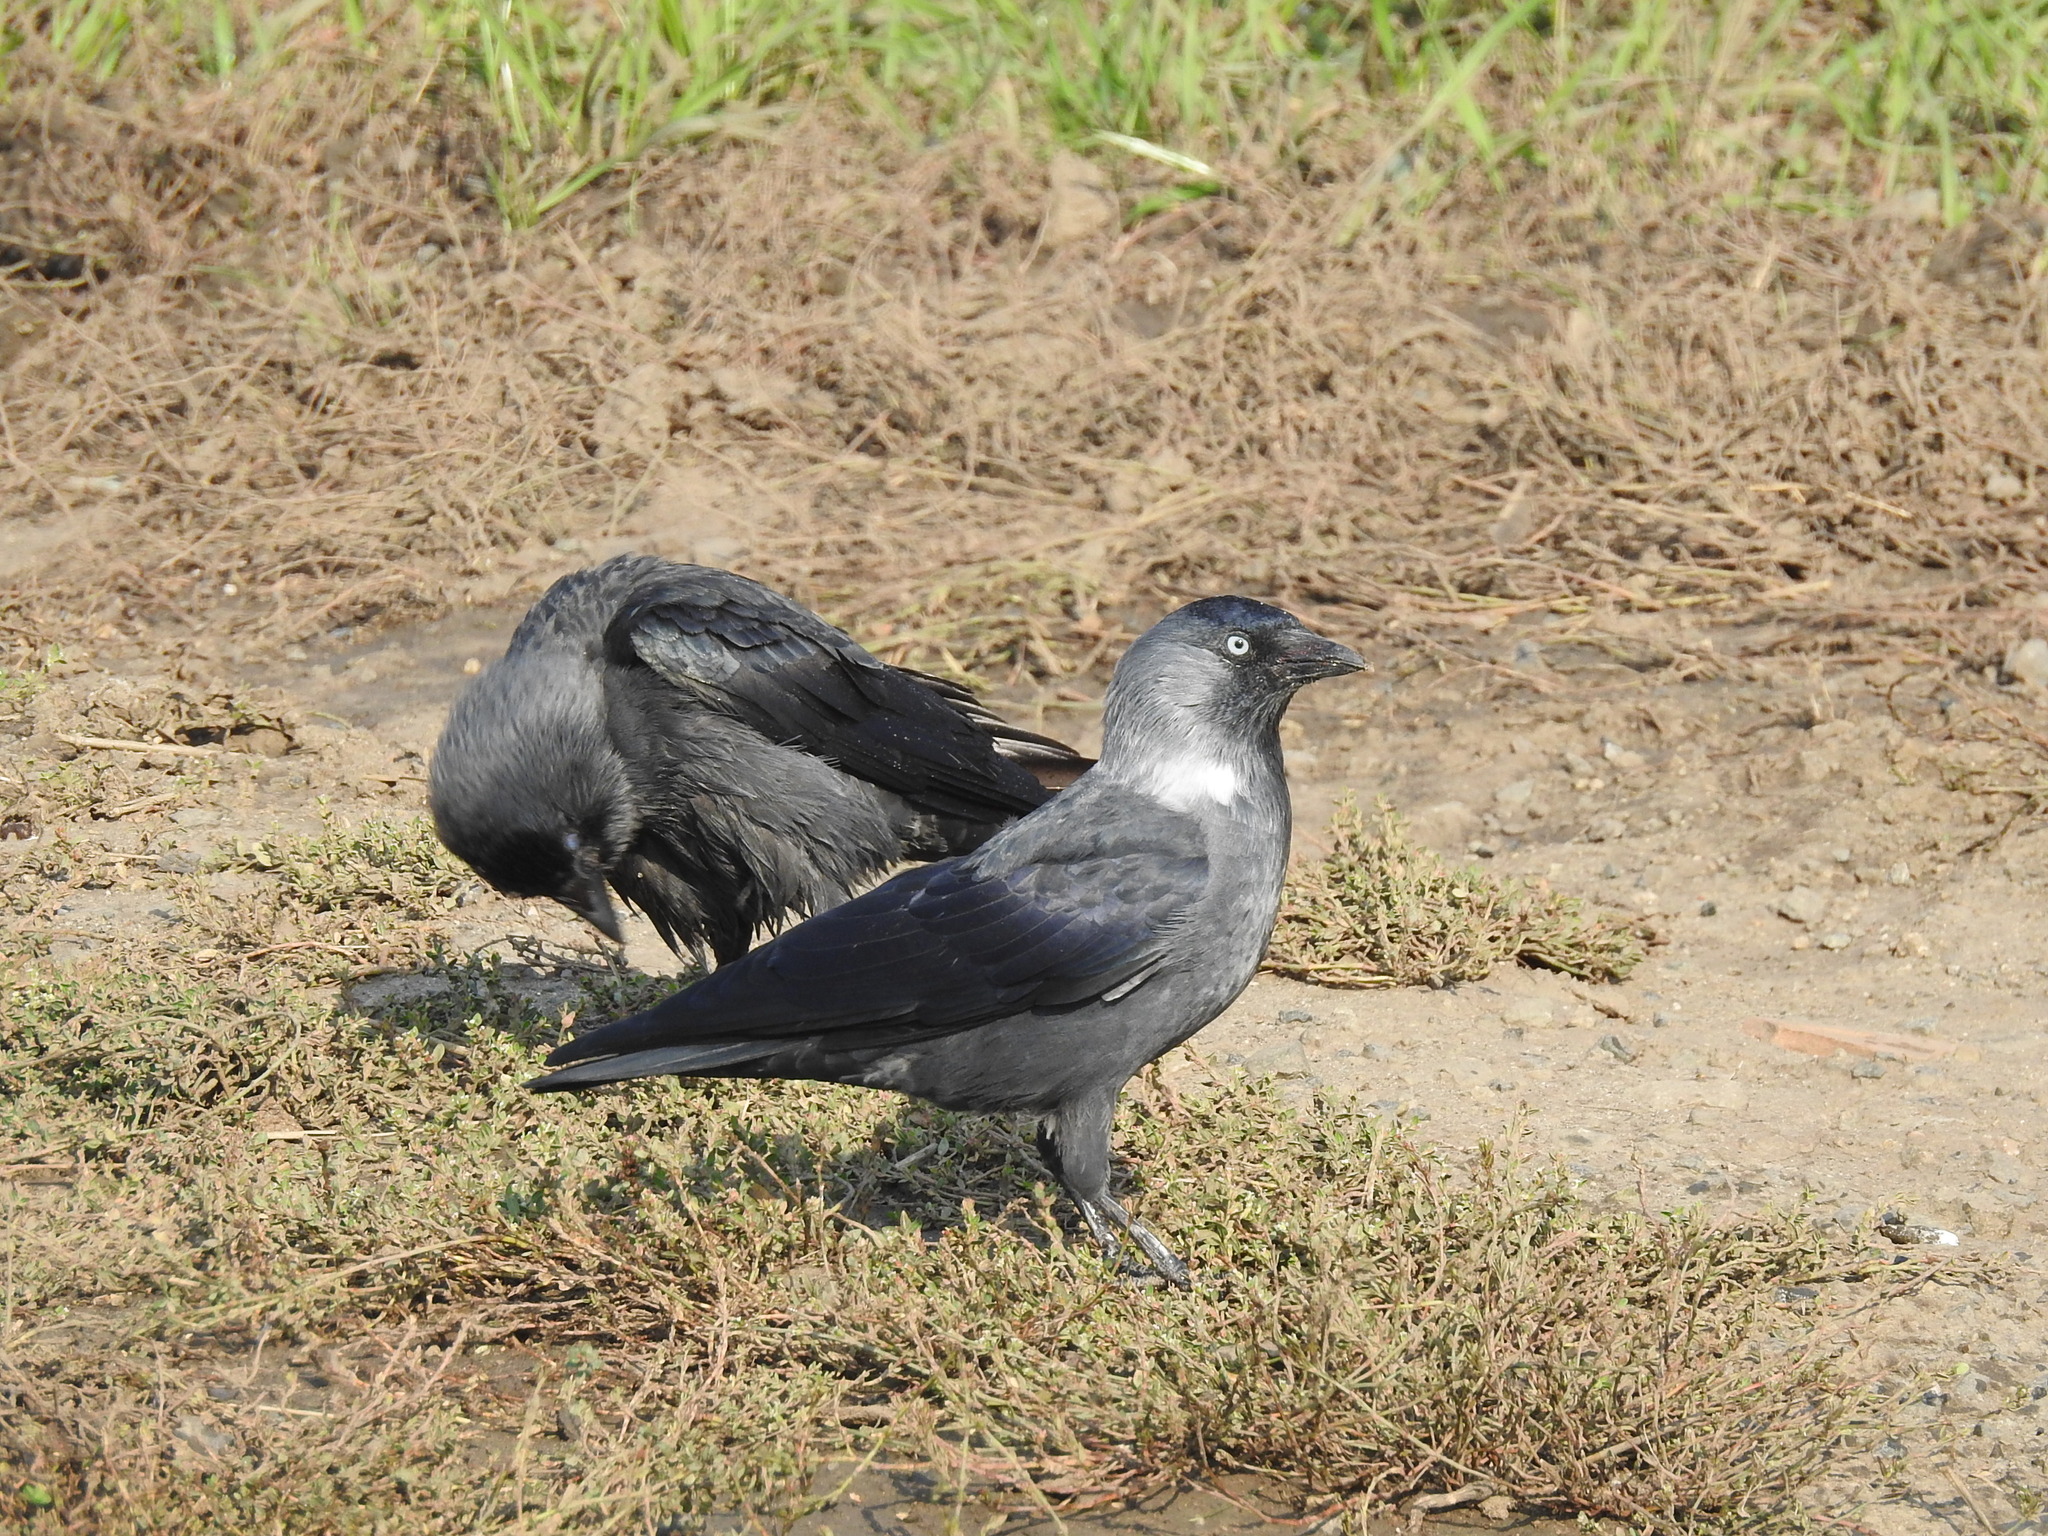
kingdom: Animalia
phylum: Chordata
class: Aves
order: Passeriformes
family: Corvidae
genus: Coloeus
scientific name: Coloeus monedula
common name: Western jackdaw
